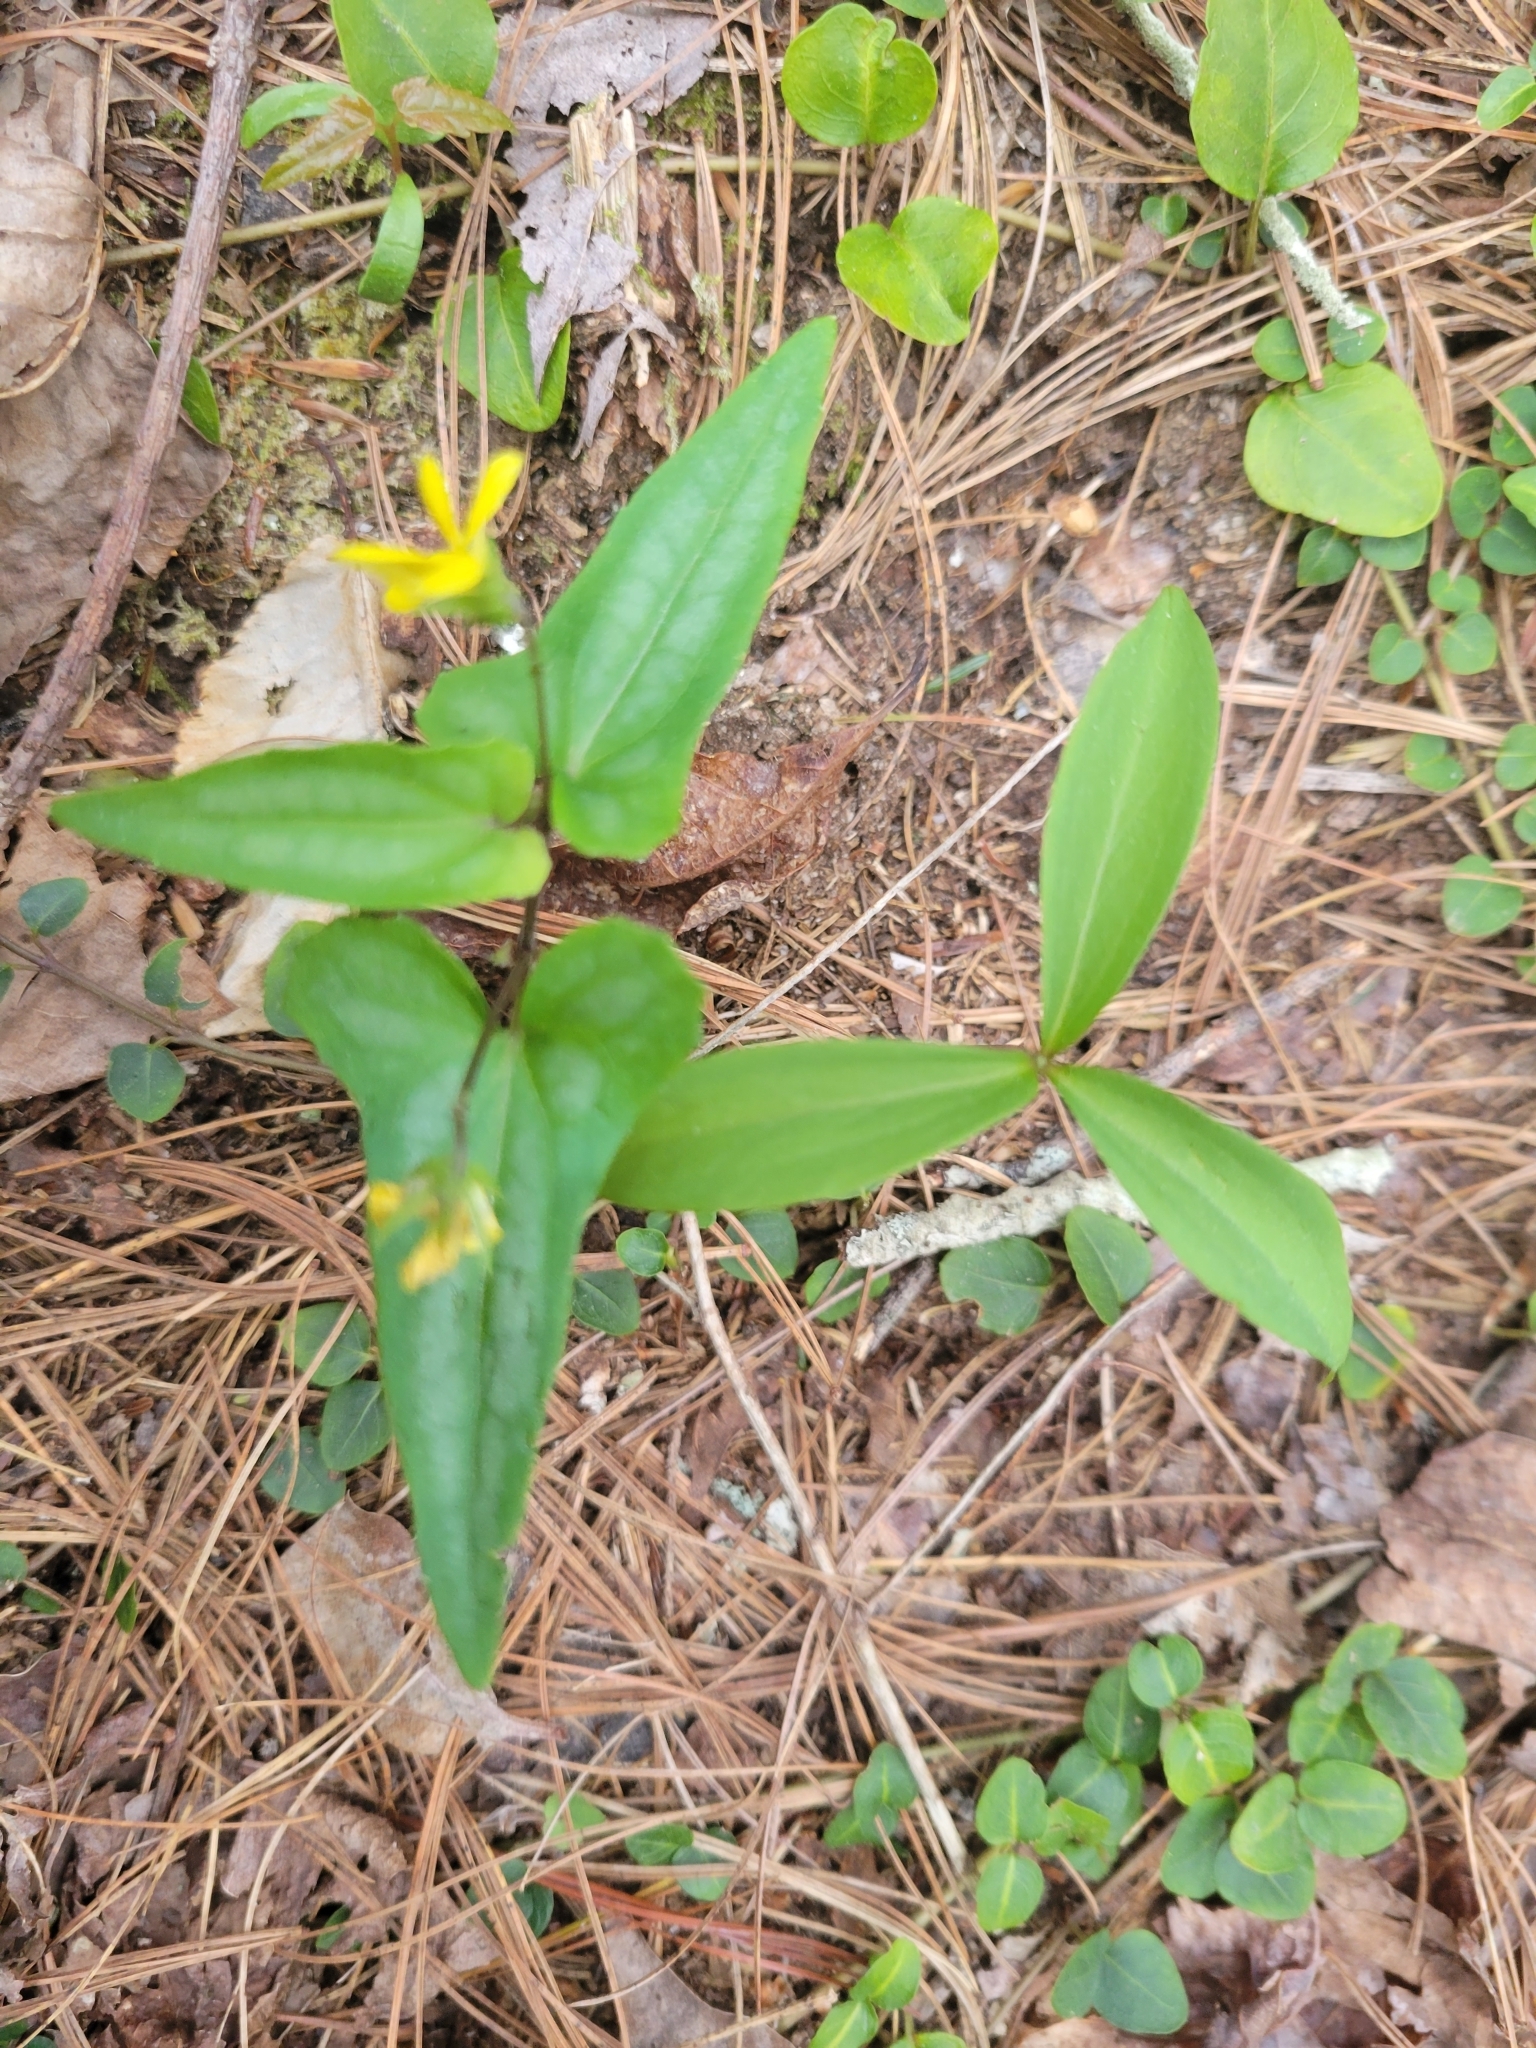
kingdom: Plantae
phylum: Tracheophyta
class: Magnoliopsida
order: Malpighiales
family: Violaceae
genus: Viola
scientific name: Viola hastata
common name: Spear-leaf violet
